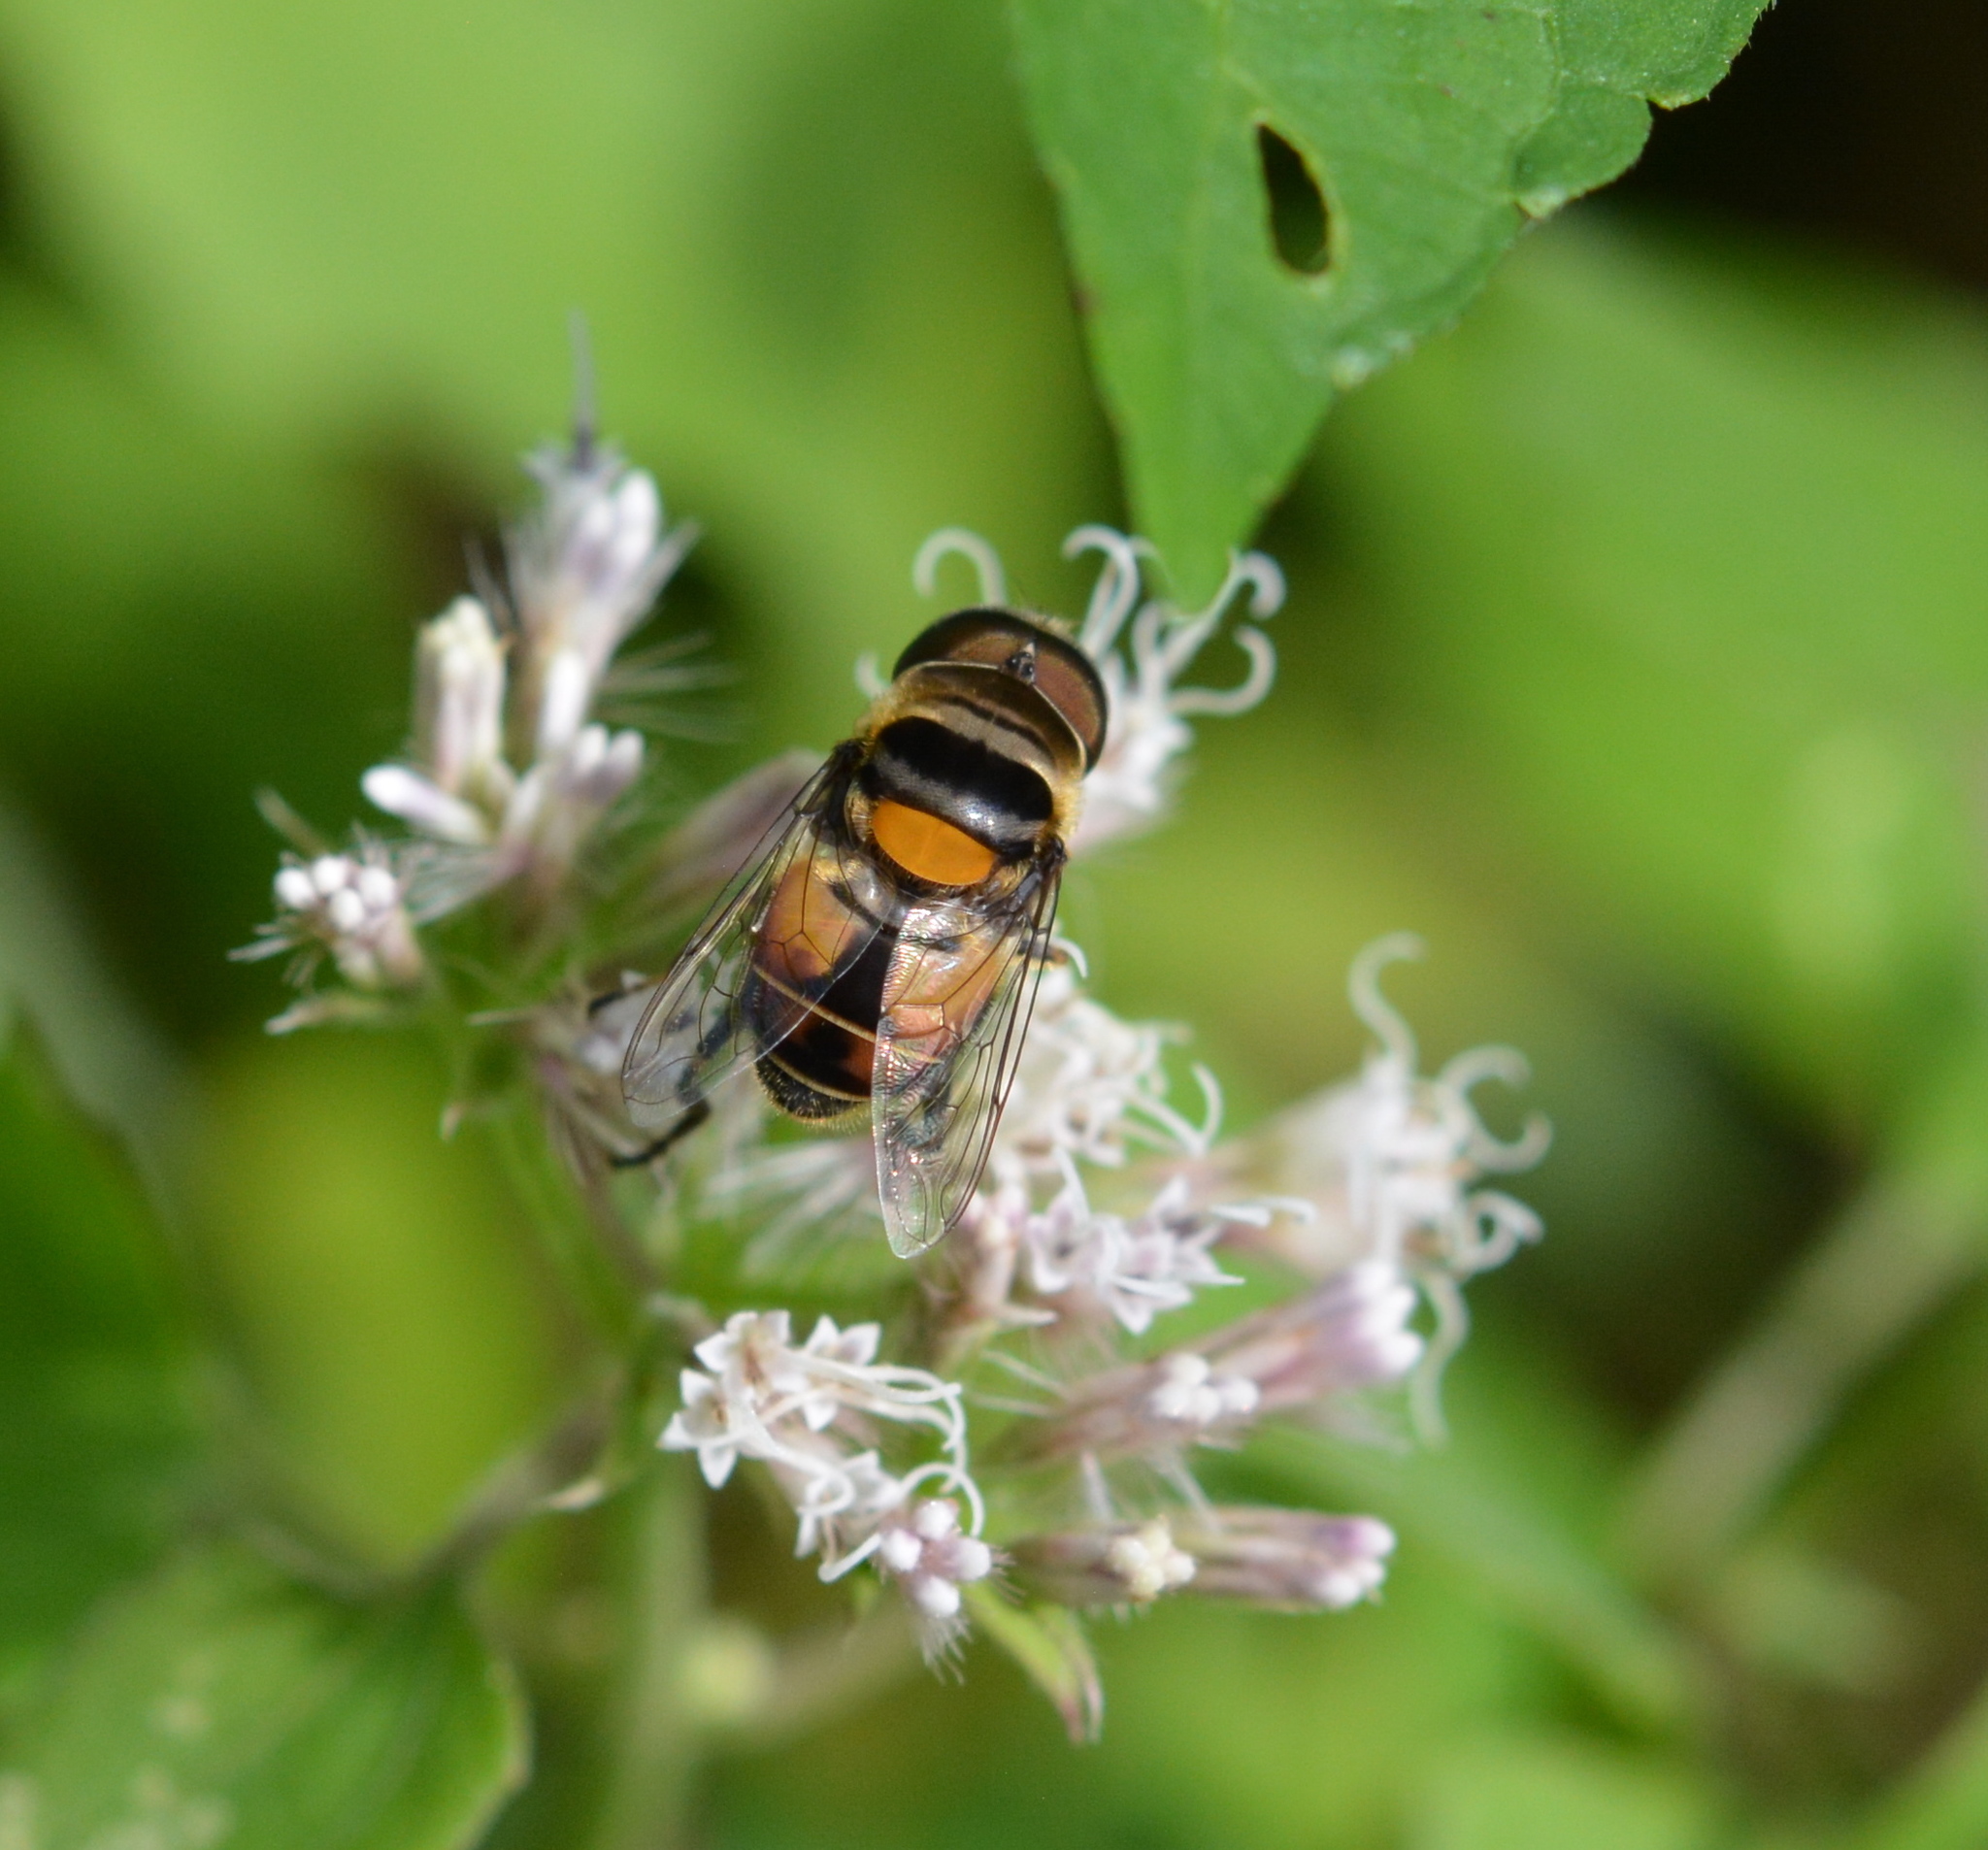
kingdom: Animalia
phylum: Arthropoda
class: Insecta
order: Diptera
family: Syrphidae
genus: Palpada
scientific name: Palpada agrorum
